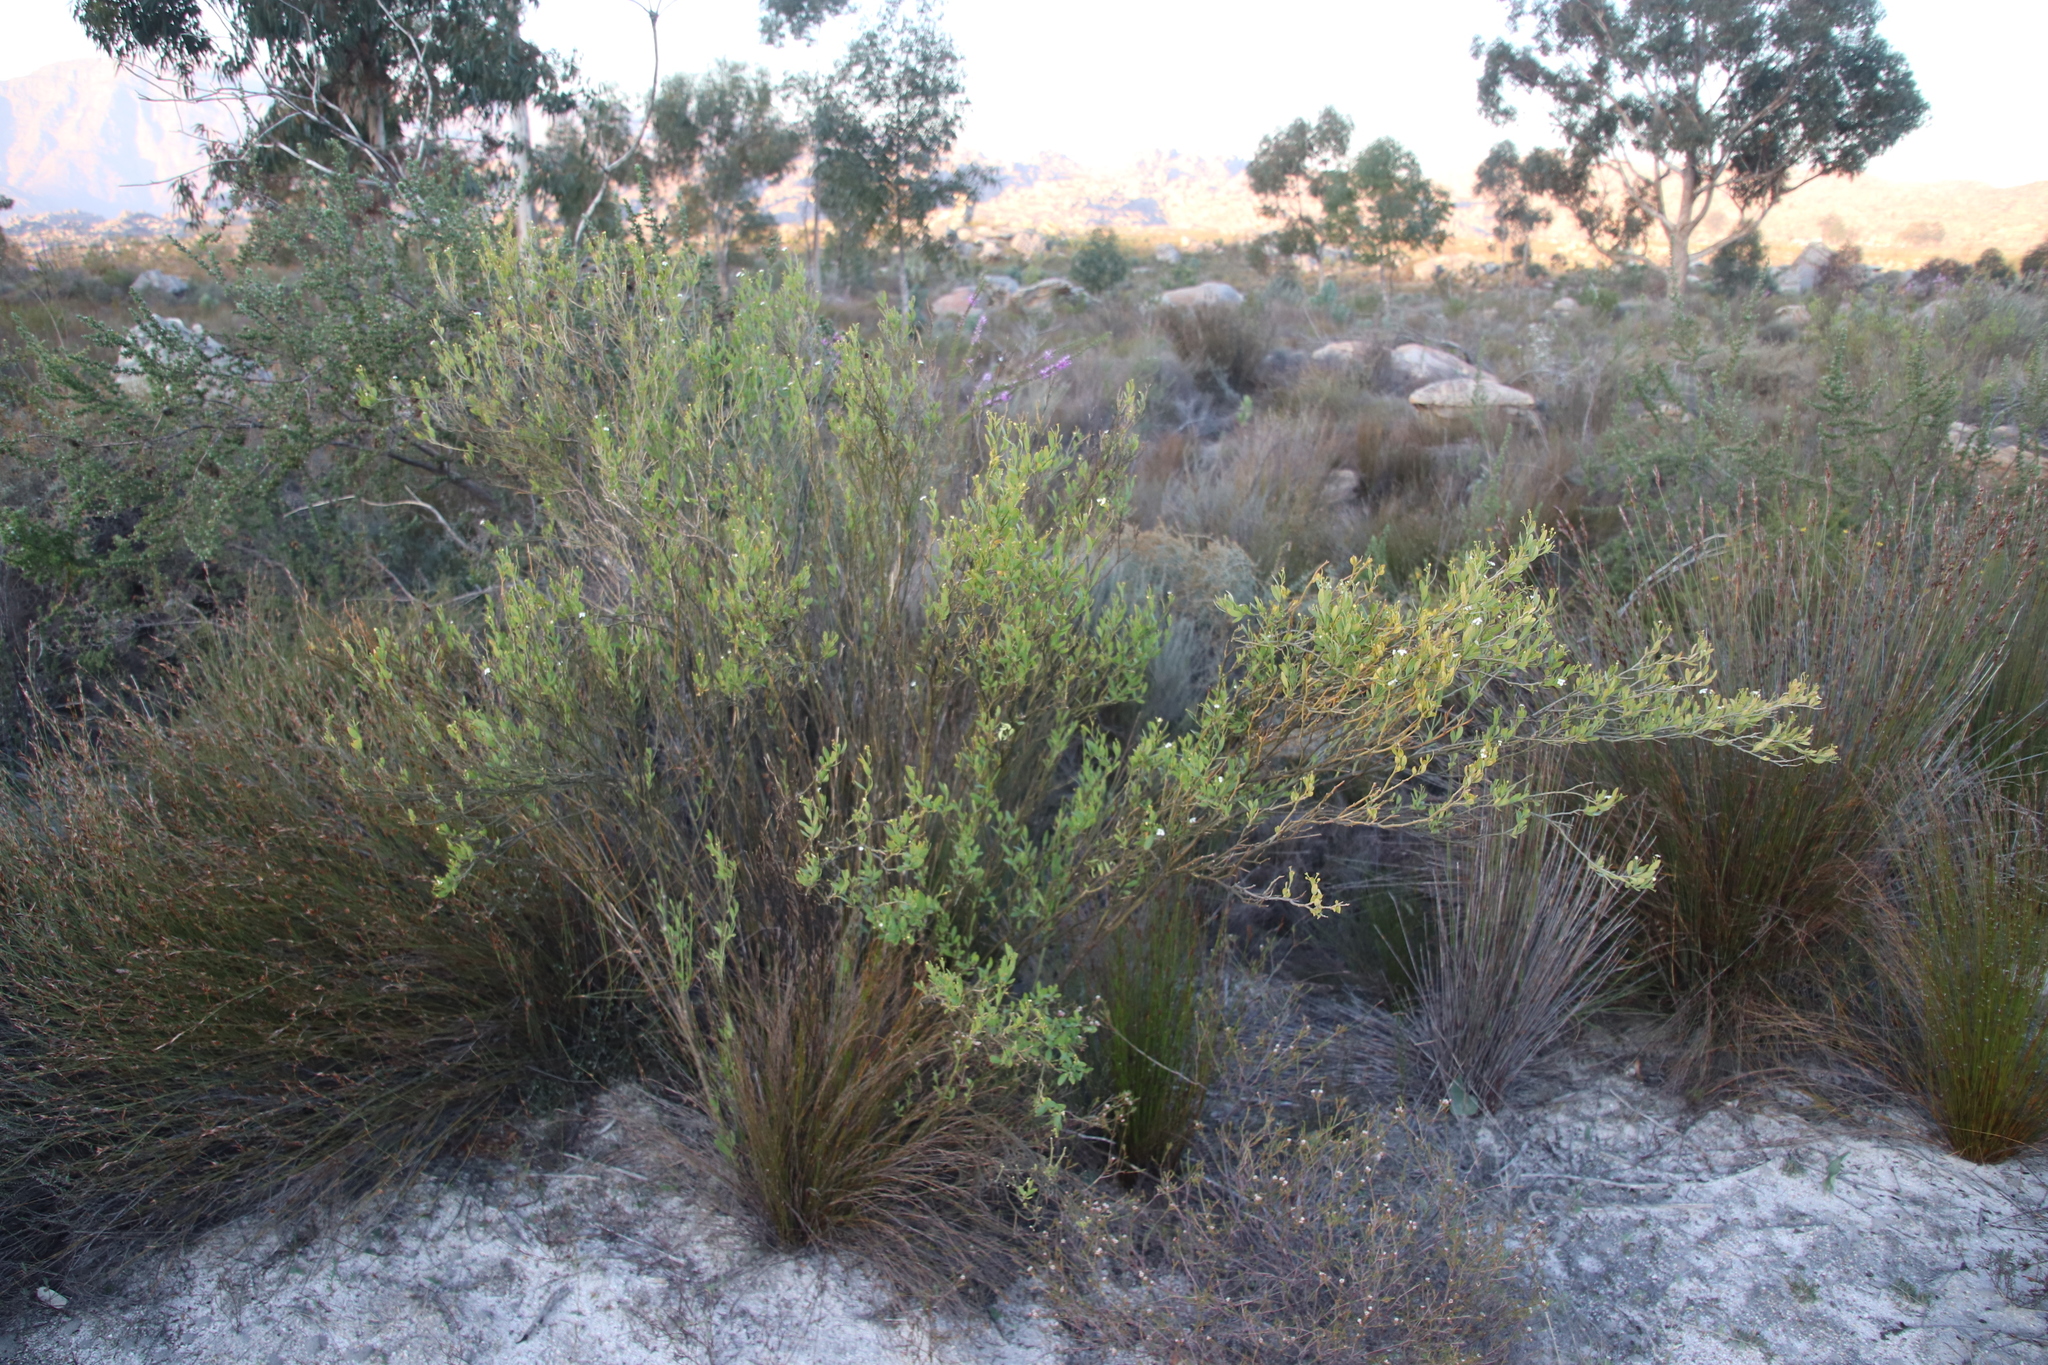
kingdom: Plantae
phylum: Tracheophyta
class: Magnoliopsida
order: Solanales
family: Montiniaceae
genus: Montinia
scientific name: Montinia caryophyllacea
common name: Wild clove-bush
